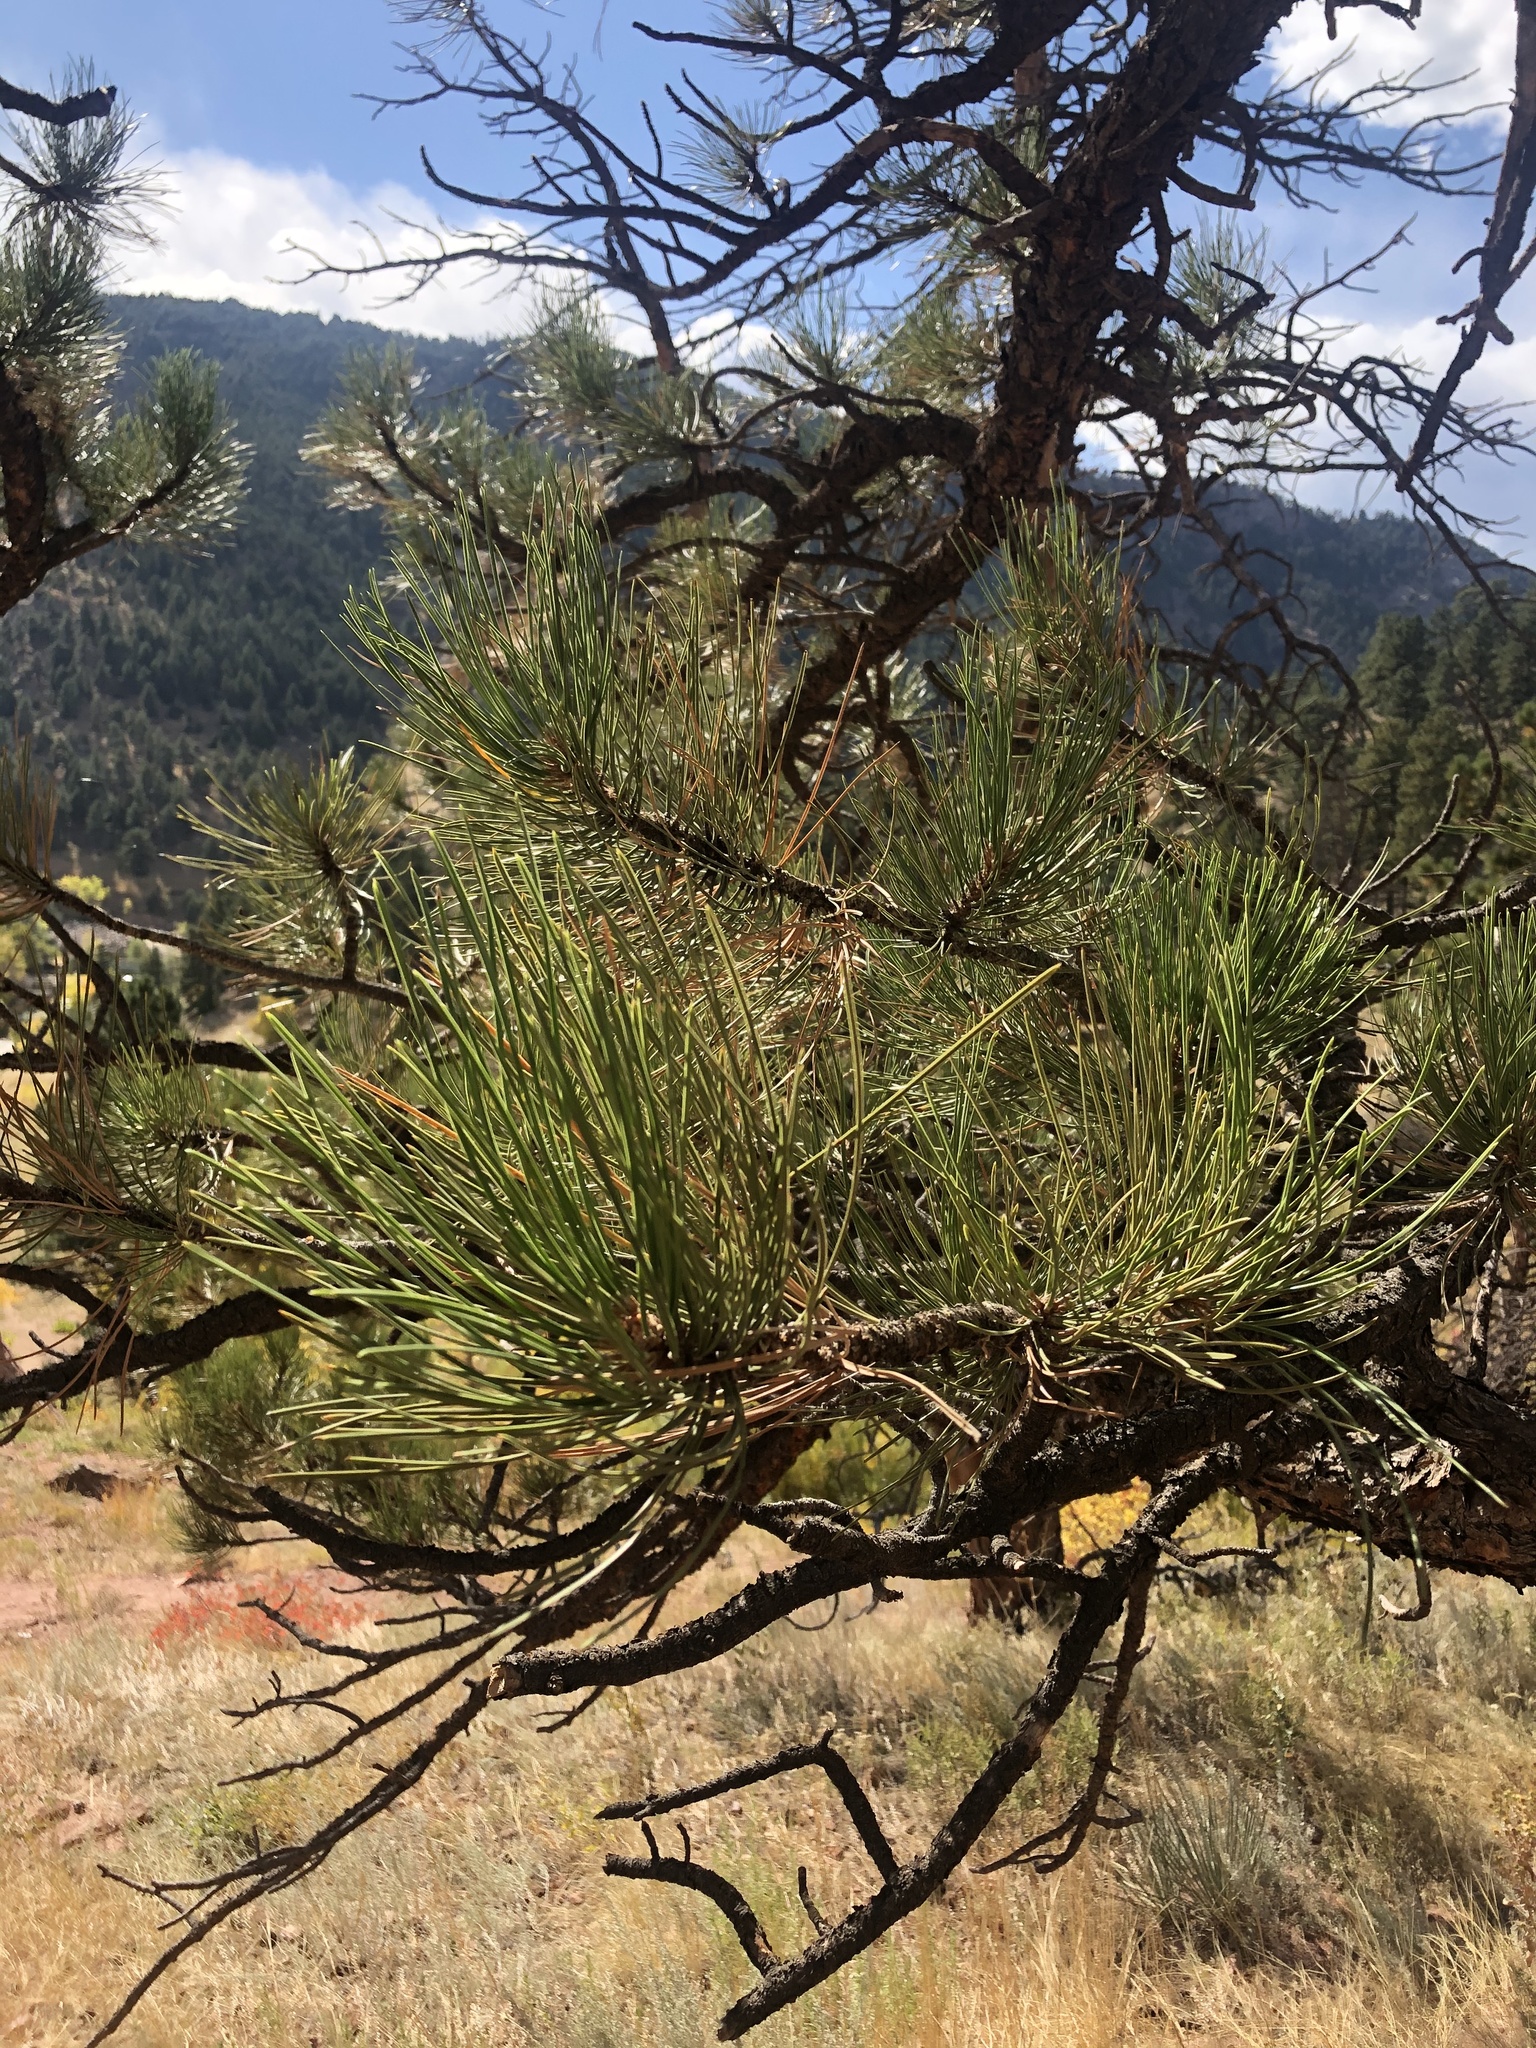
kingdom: Plantae
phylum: Tracheophyta
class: Pinopsida
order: Pinales
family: Pinaceae
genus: Pinus
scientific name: Pinus ponderosa
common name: Western yellow-pine
